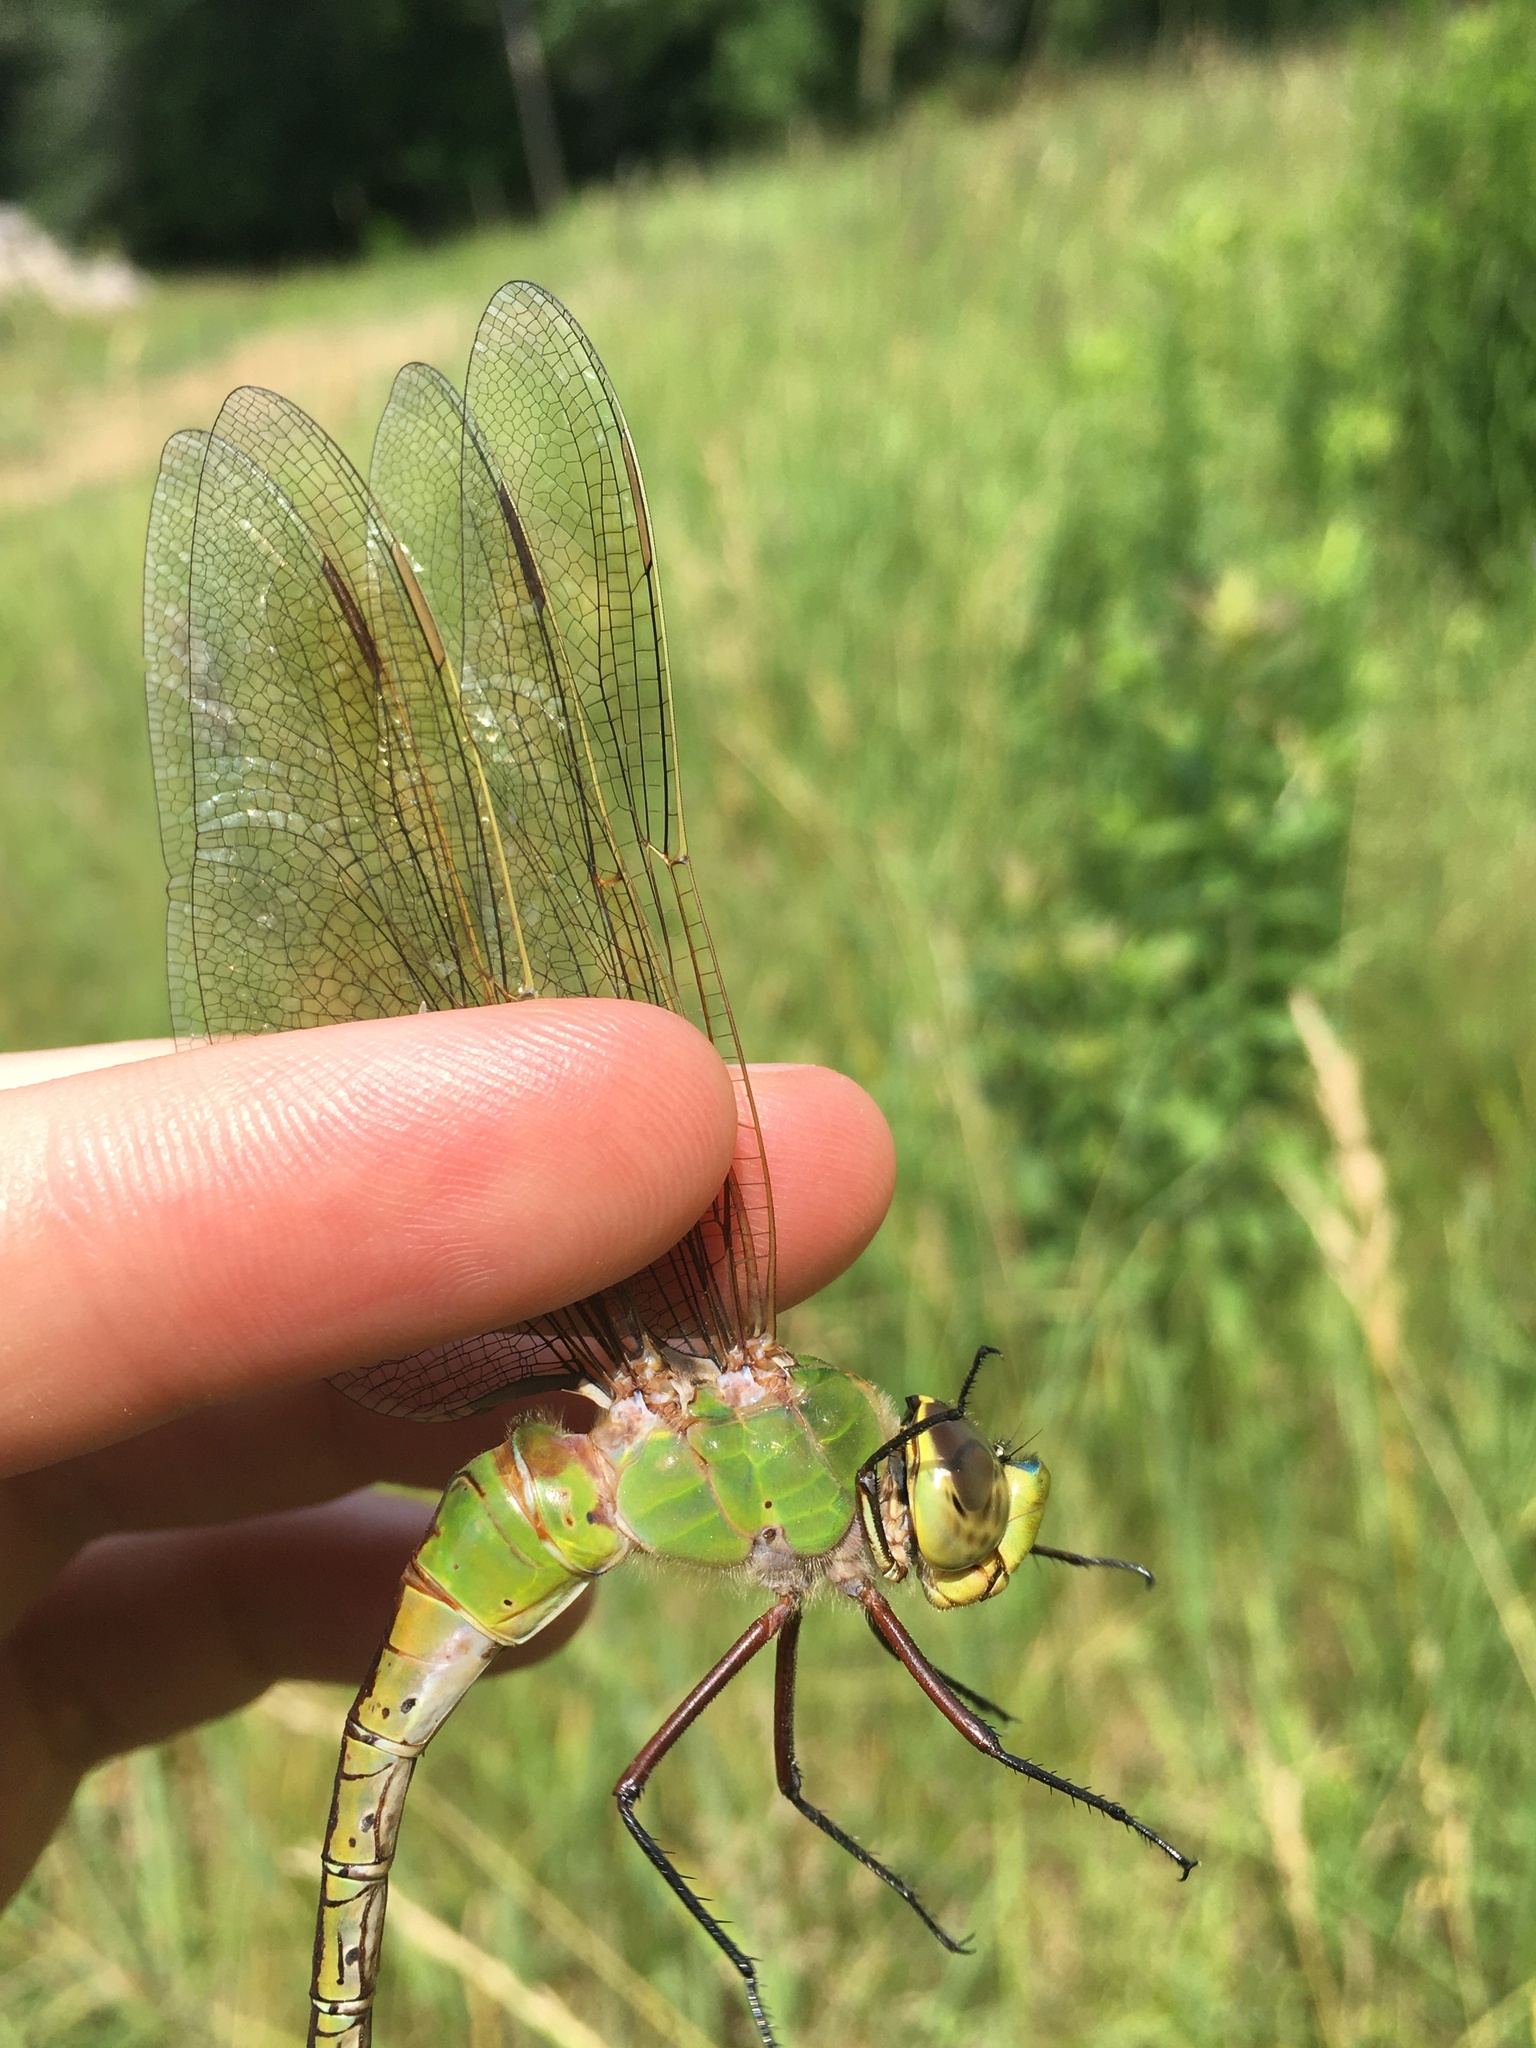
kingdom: Animalia
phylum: Arthropoda
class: Insecta
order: Odonata
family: Aeshnidae
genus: Anax
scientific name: Anax junius
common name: Common green darner
